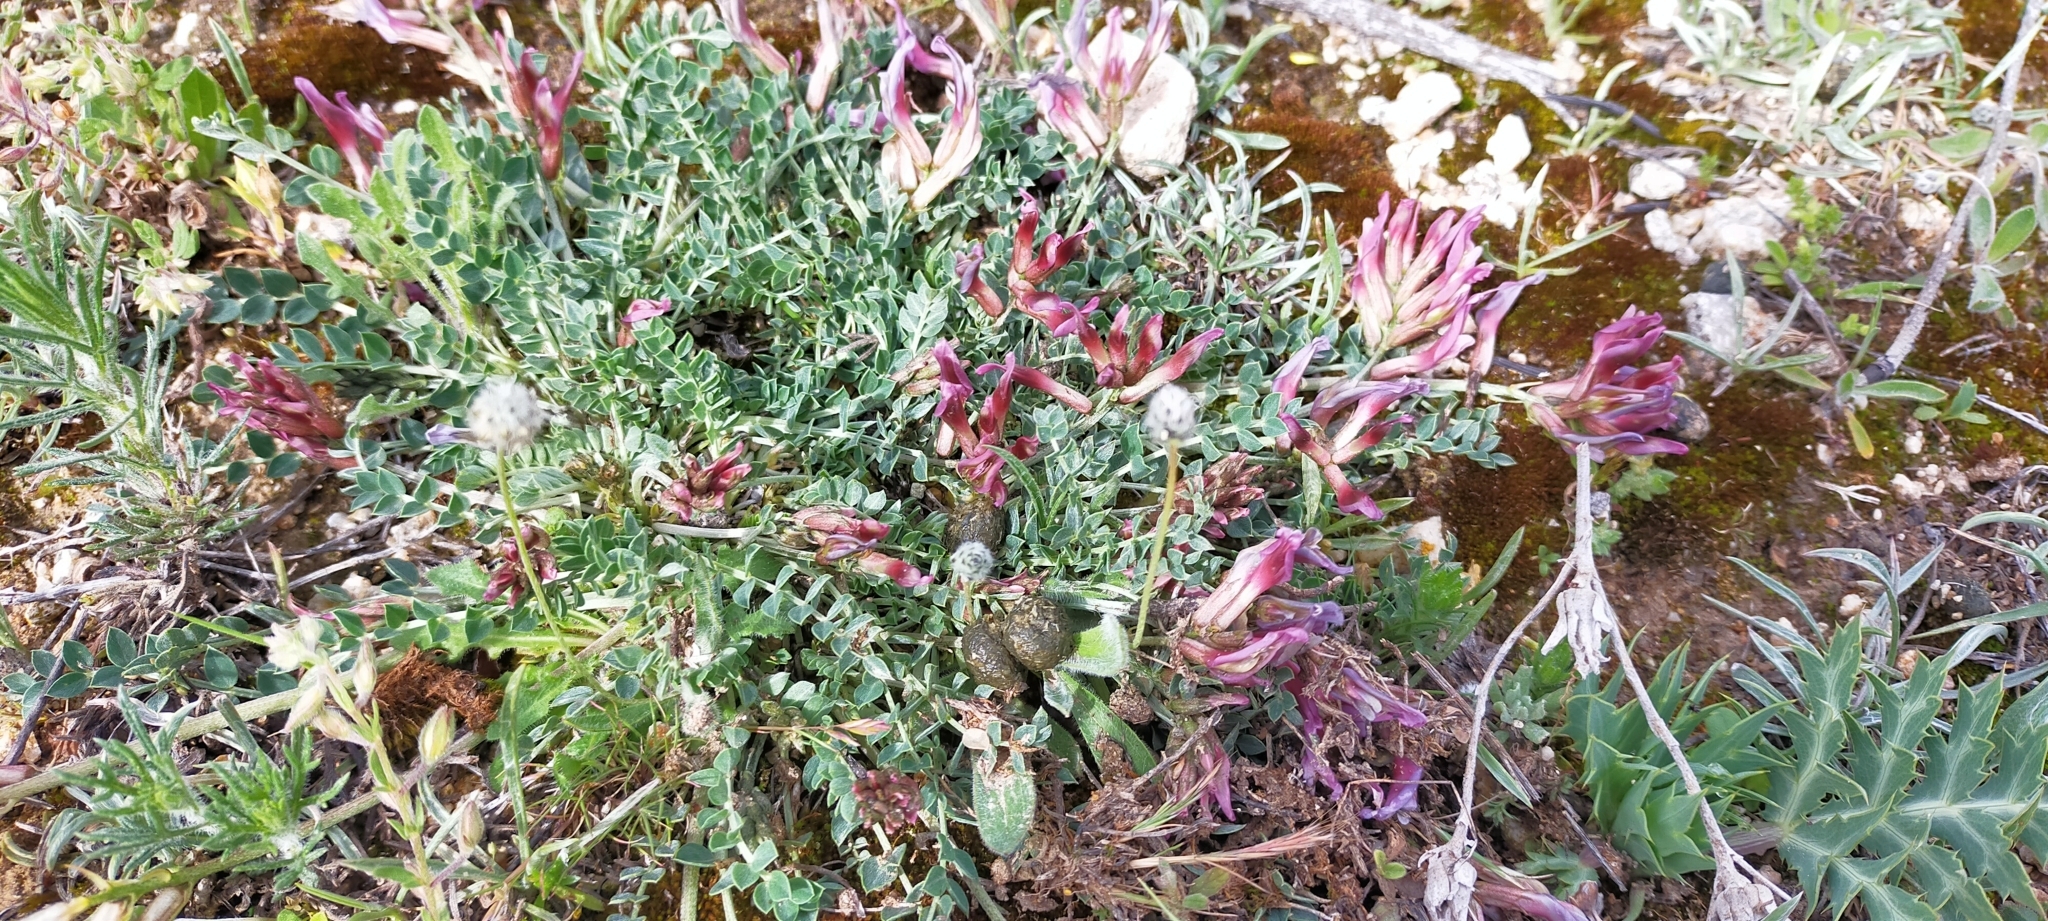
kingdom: Plantae
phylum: Tracheophyta
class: Magnoliopsida
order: Fabales
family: Fabaceae
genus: Astragalus
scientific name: Astragalus incanus
